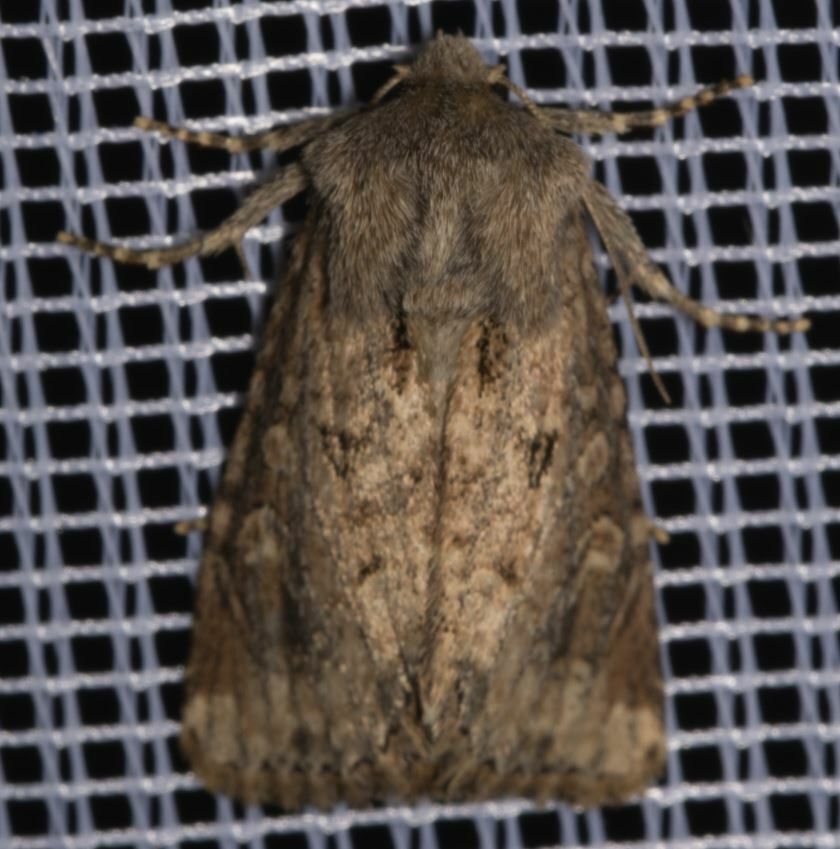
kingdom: Animalia
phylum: Arthropoda
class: Insecta
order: Lepidoptera
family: Noctuidae
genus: Luperina
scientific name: Luperina testacea
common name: Flounced rustic
